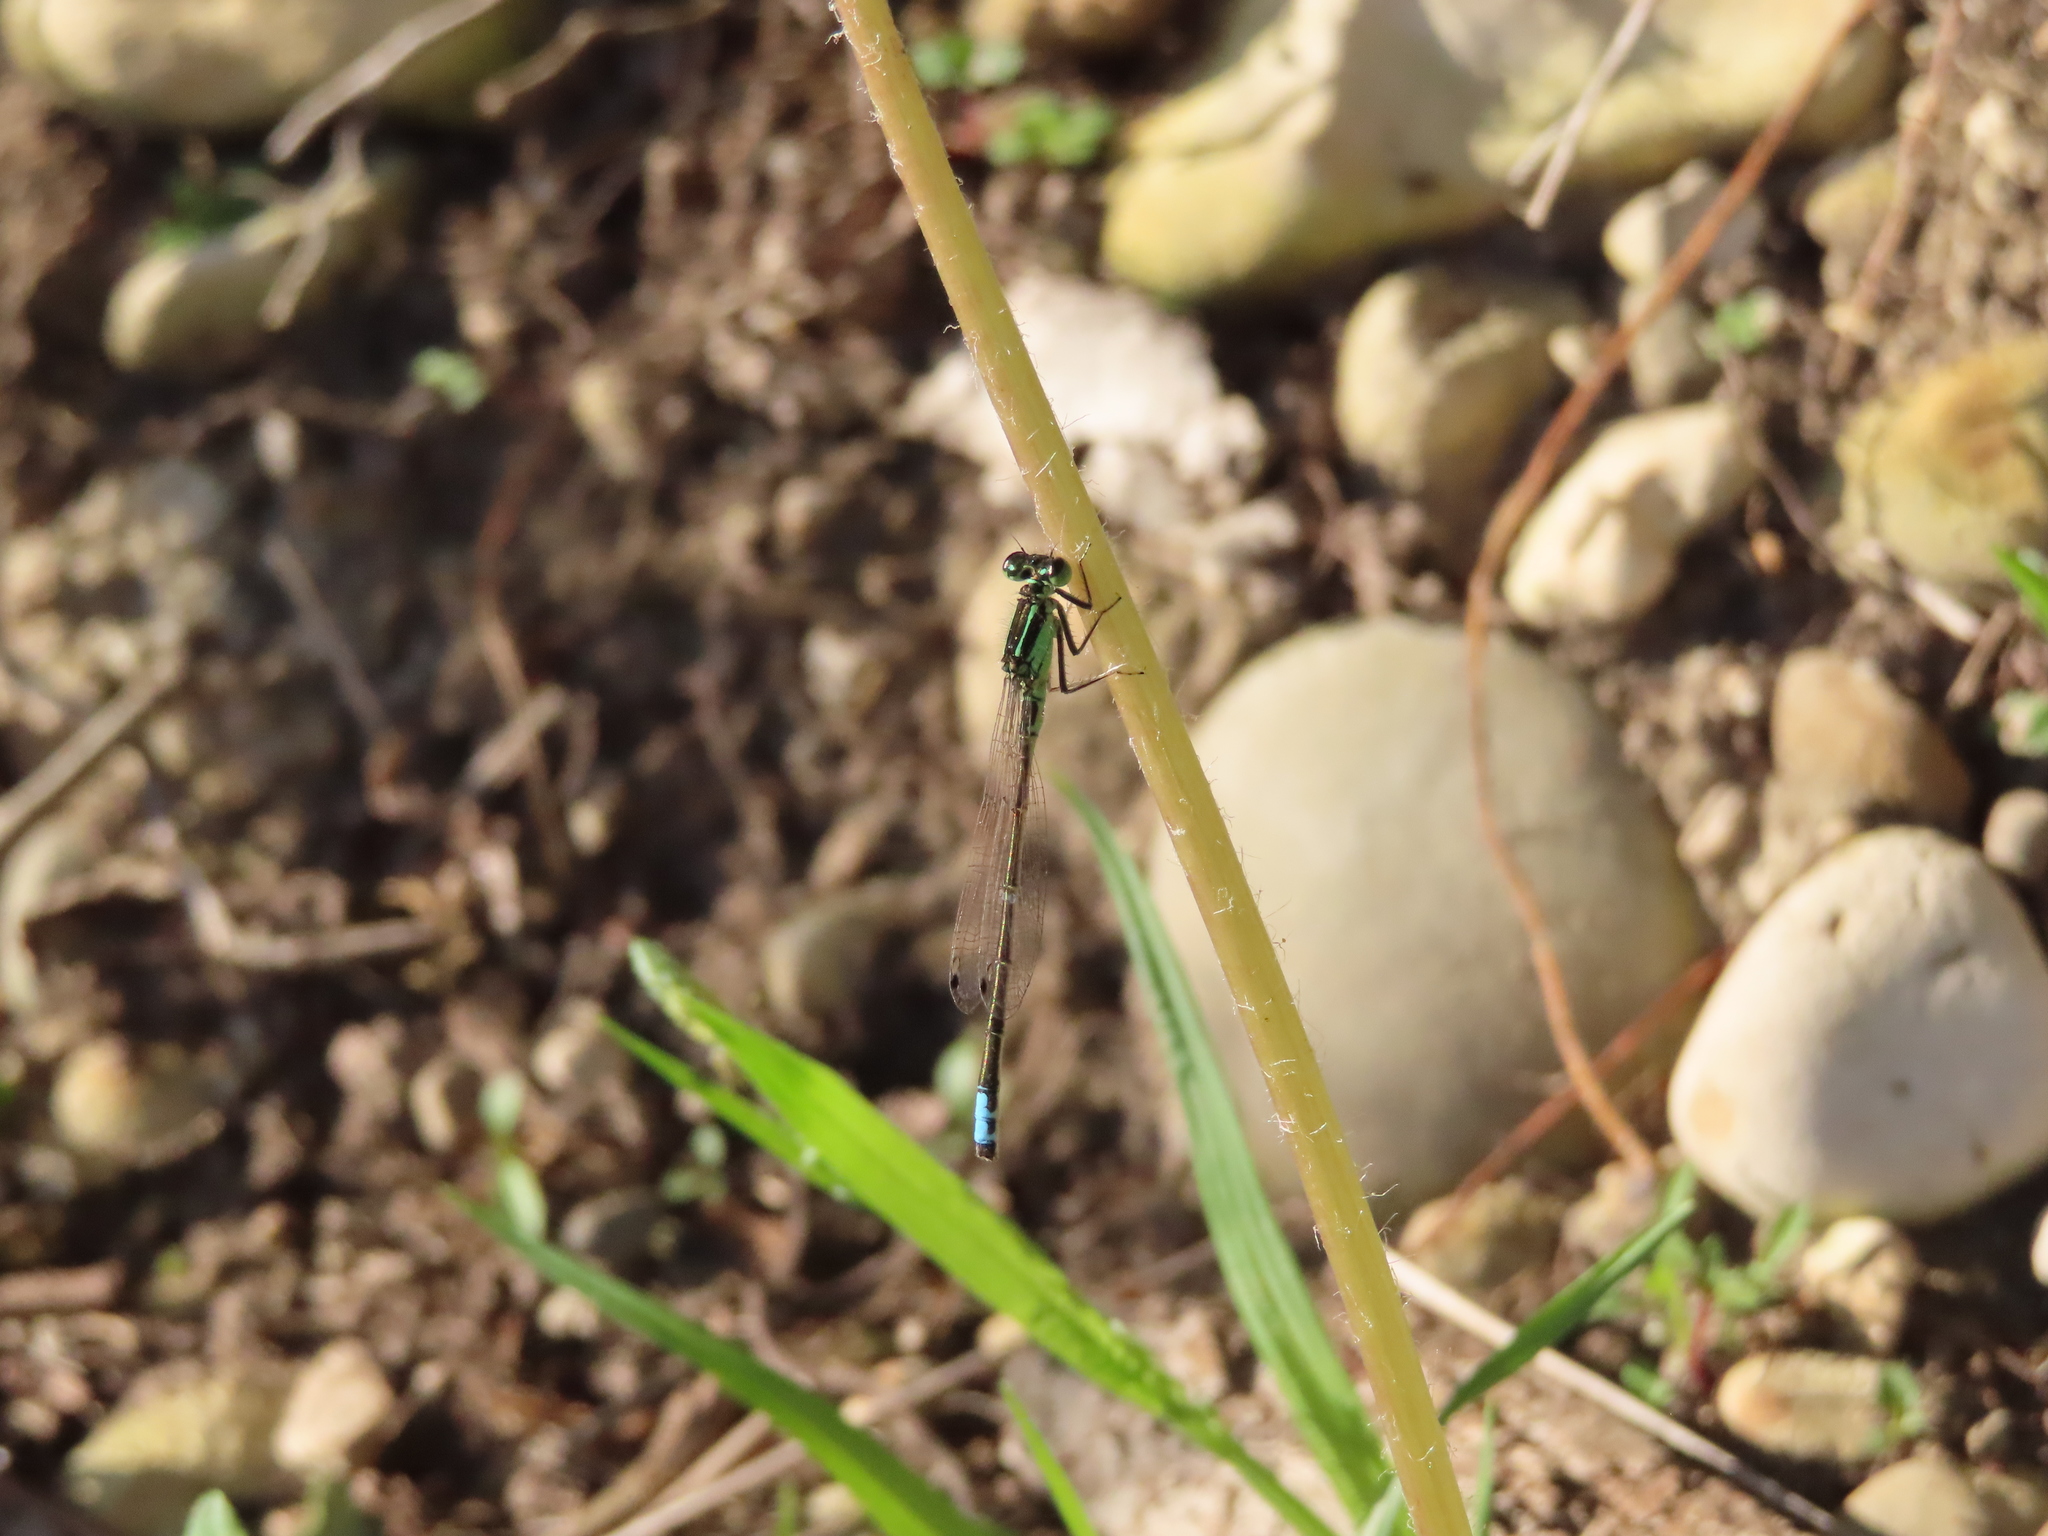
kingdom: Animalia
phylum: Arthropoda
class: Insecta
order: Odonata
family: Coenagrionidae
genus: Ischnura
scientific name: Ischnura verticalis
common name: Eastern forktail
